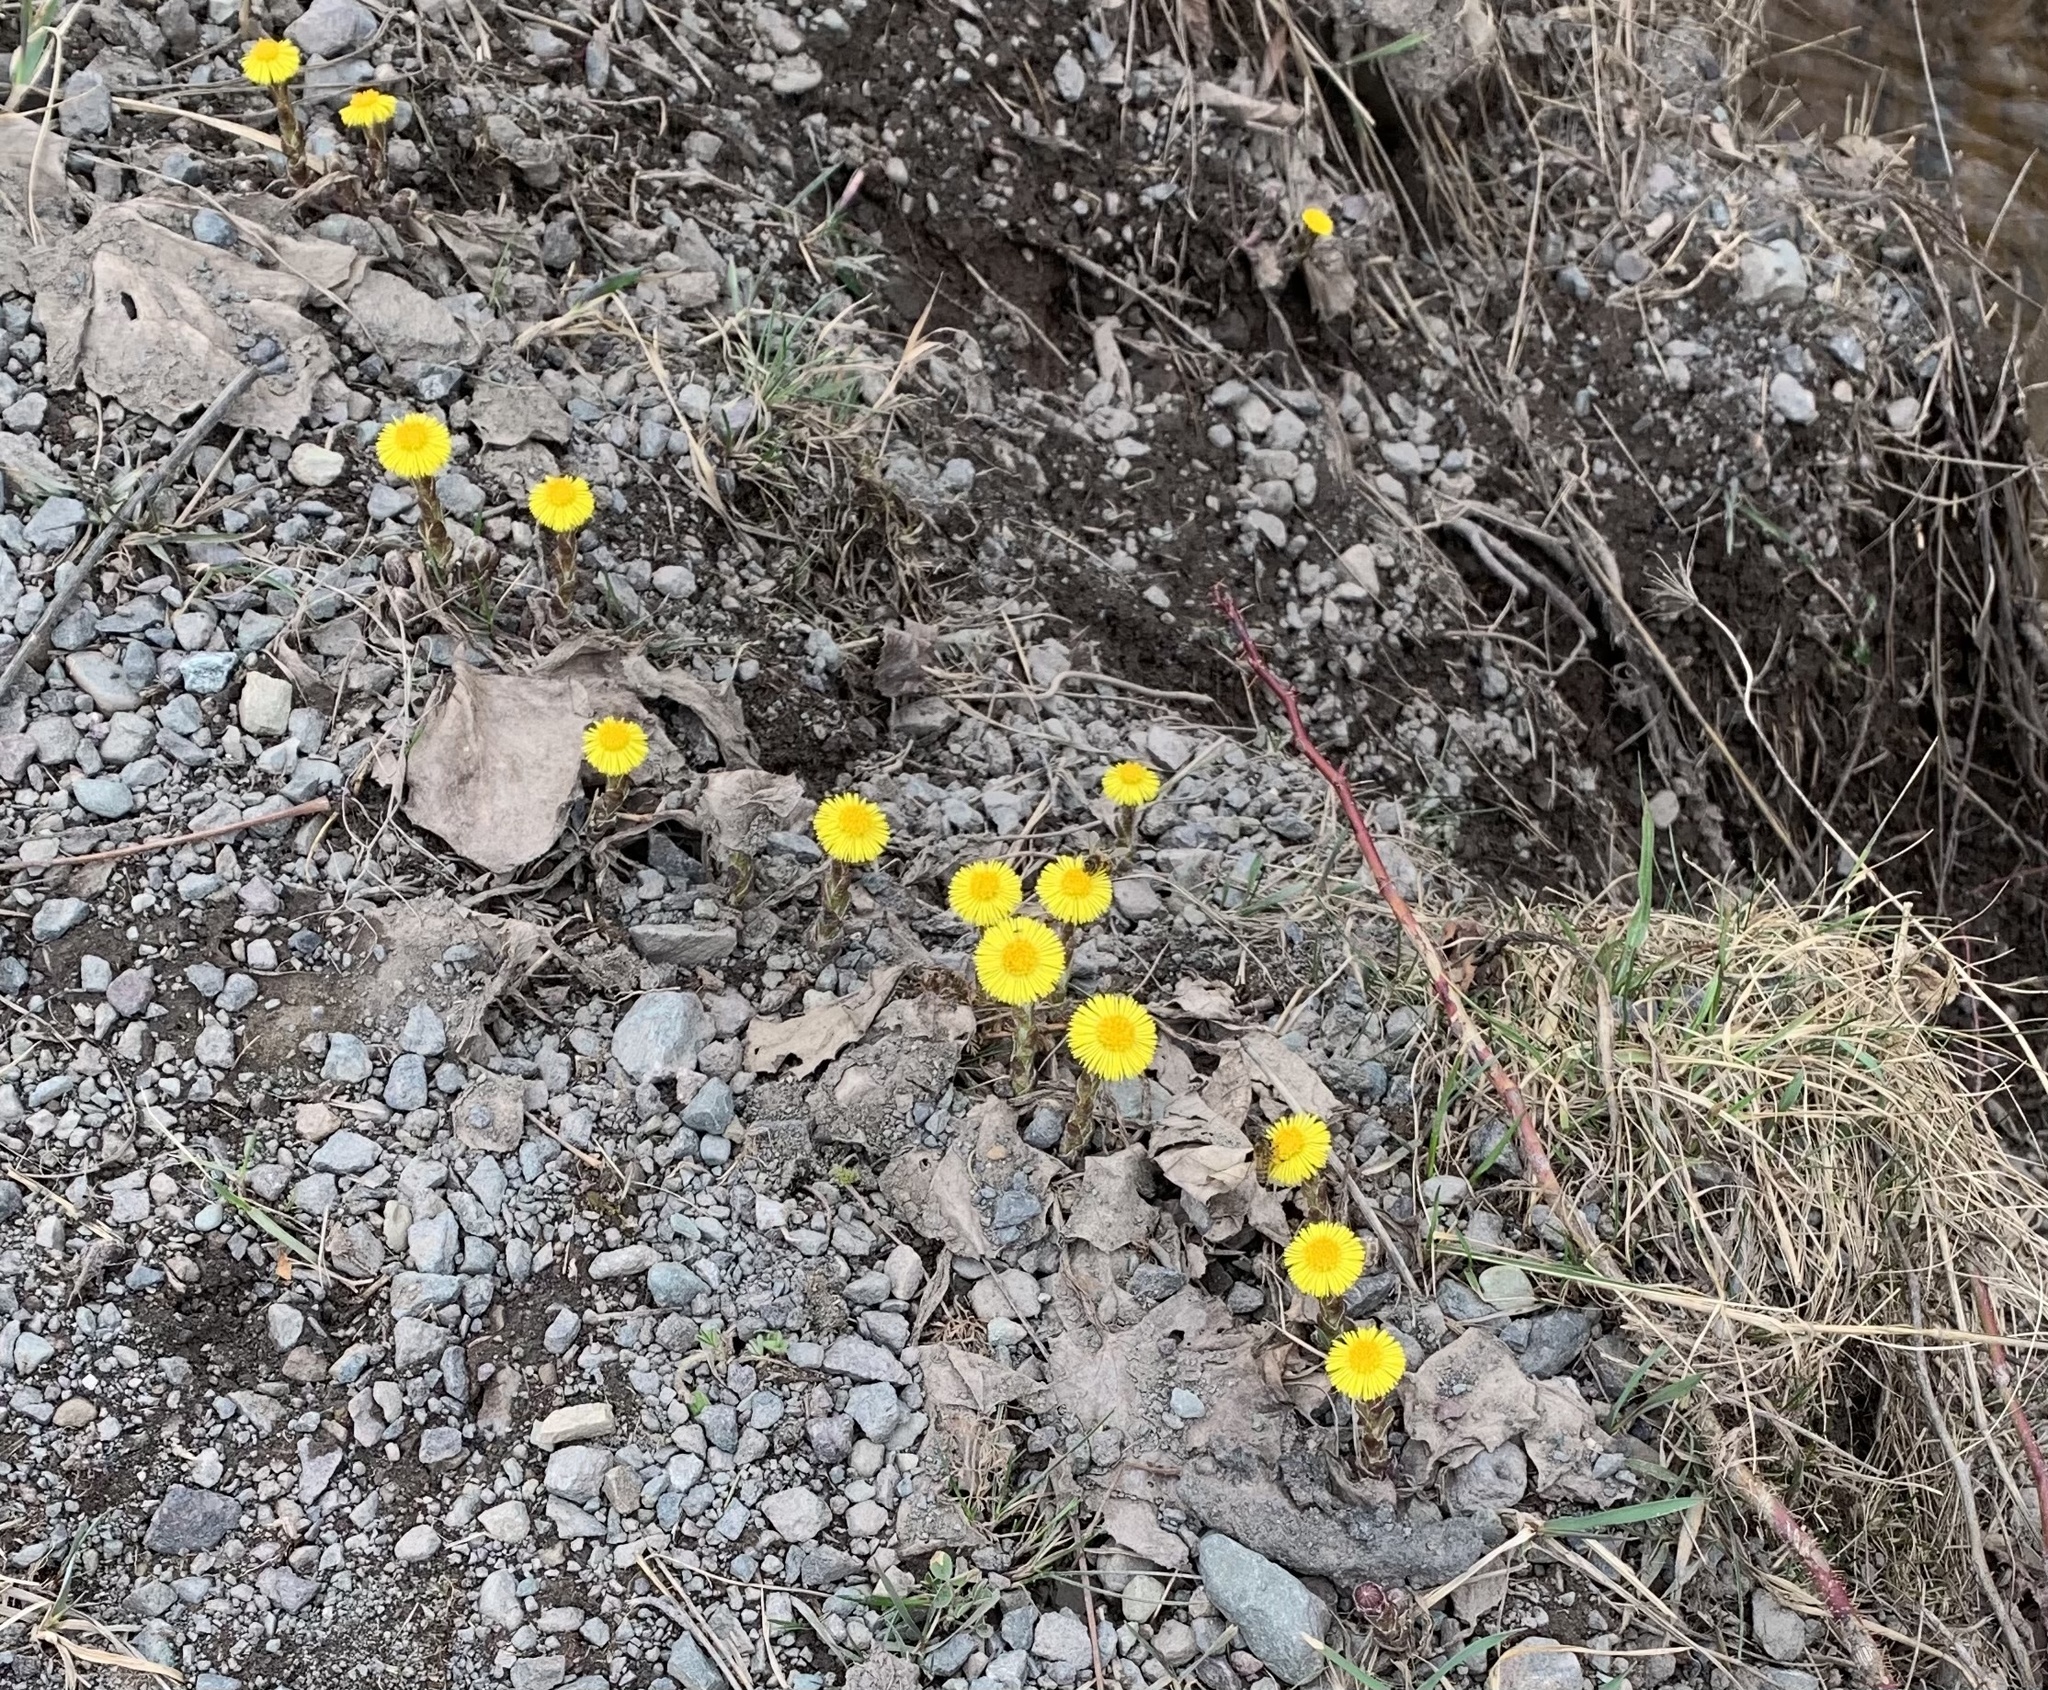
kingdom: Plantae
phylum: Tracheophyta
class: Magnoliopsida
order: Asterales
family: Asteraceae
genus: Tussilago
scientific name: Tussilago farfara
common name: Coltsfoot
